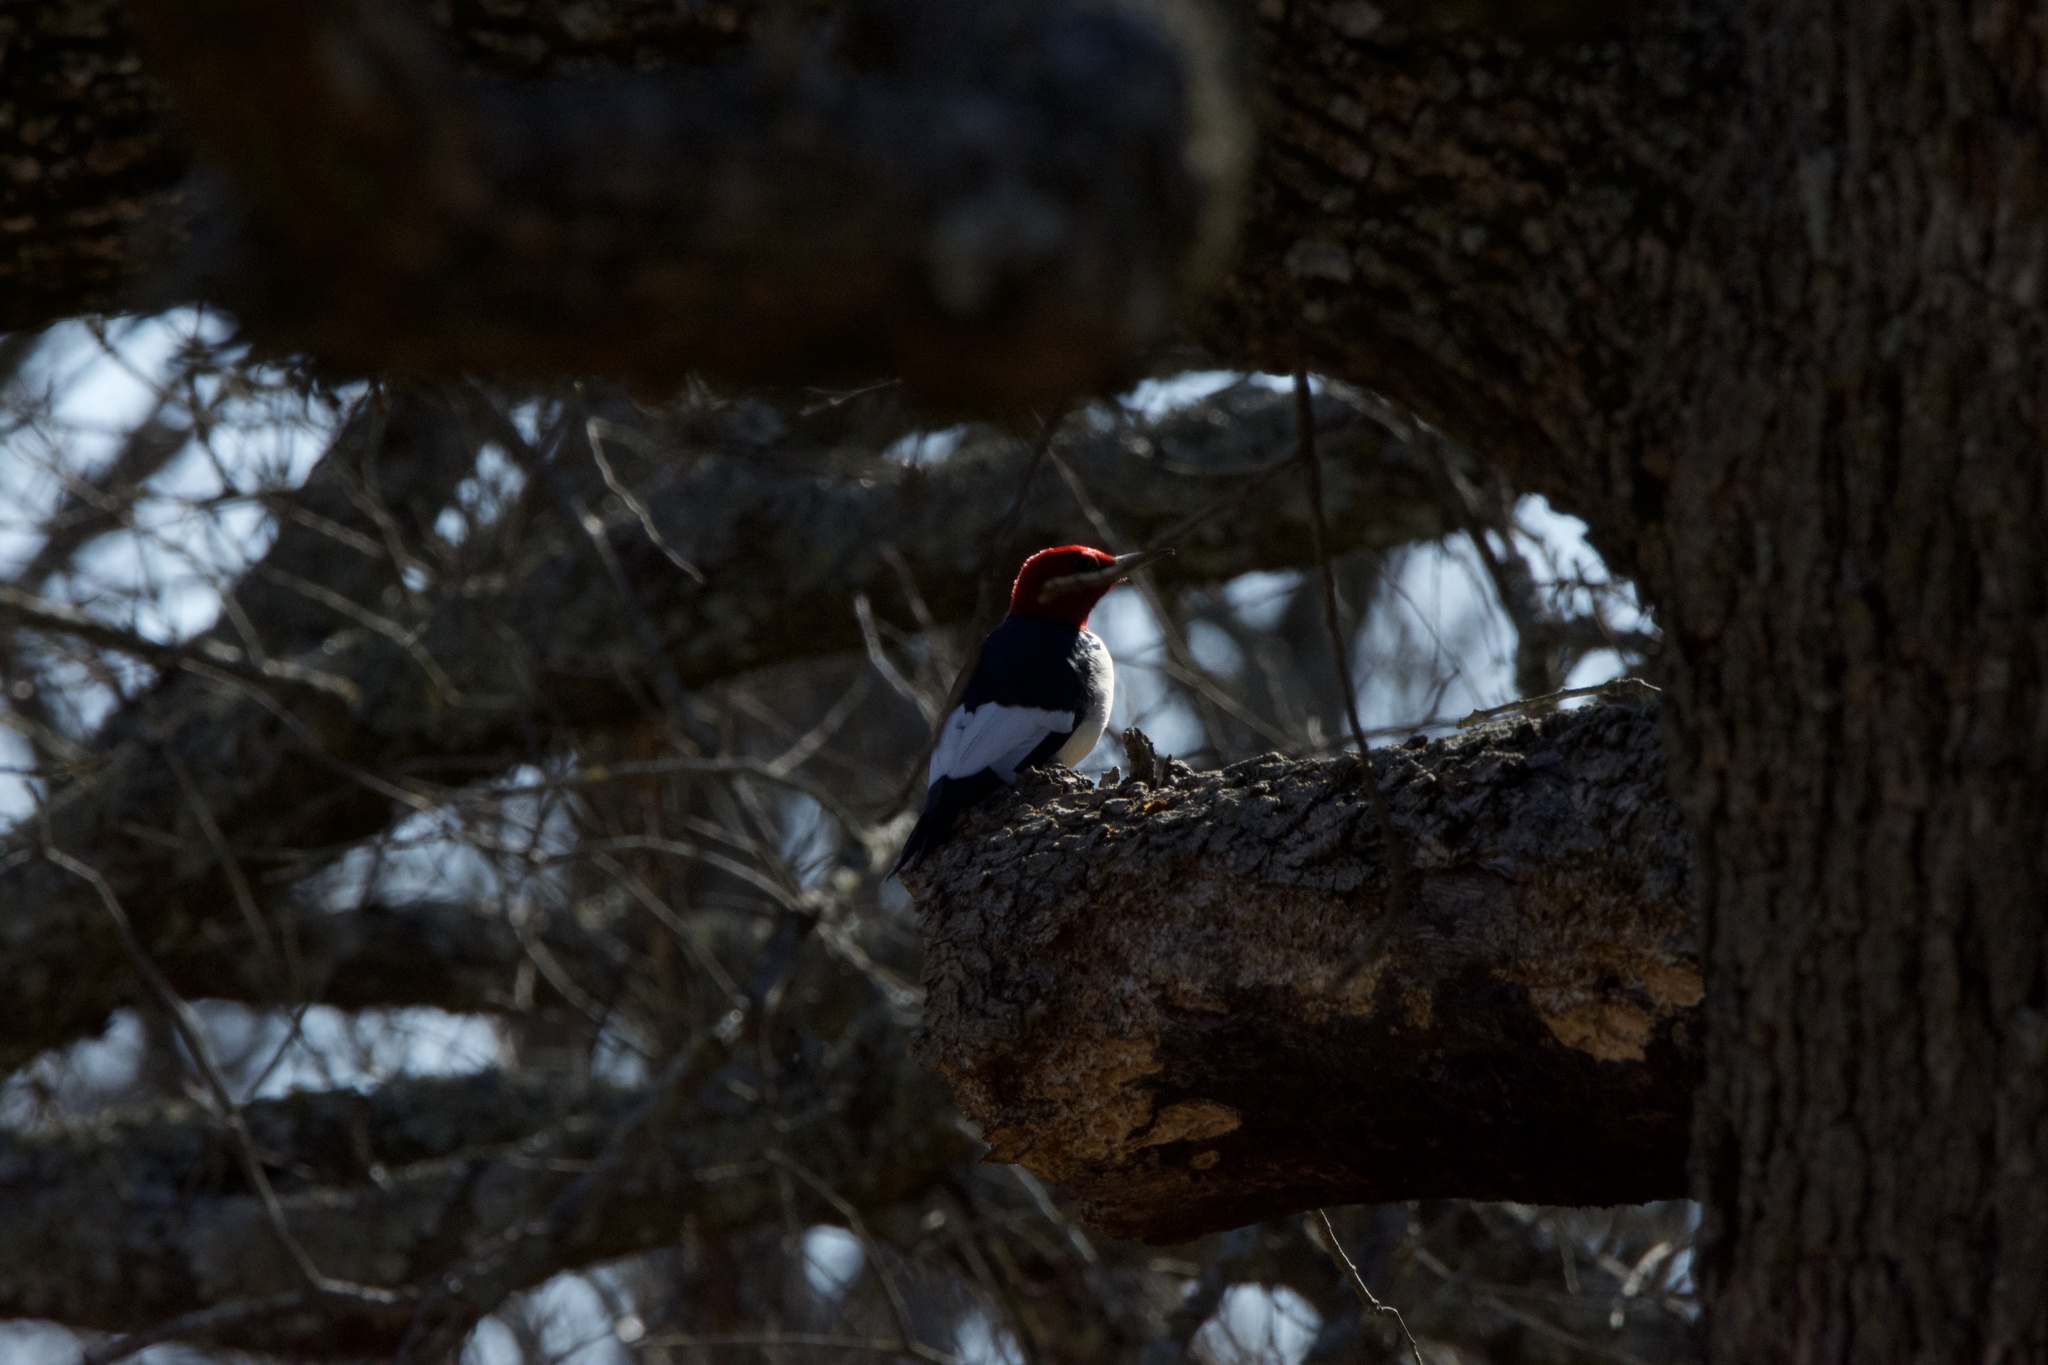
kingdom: Animalia
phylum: Chordata
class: Aves
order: Piciformes
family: Picidae
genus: Melanerpes
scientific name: Melanerpes erythrocephalus
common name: Red-headed woodpecker
